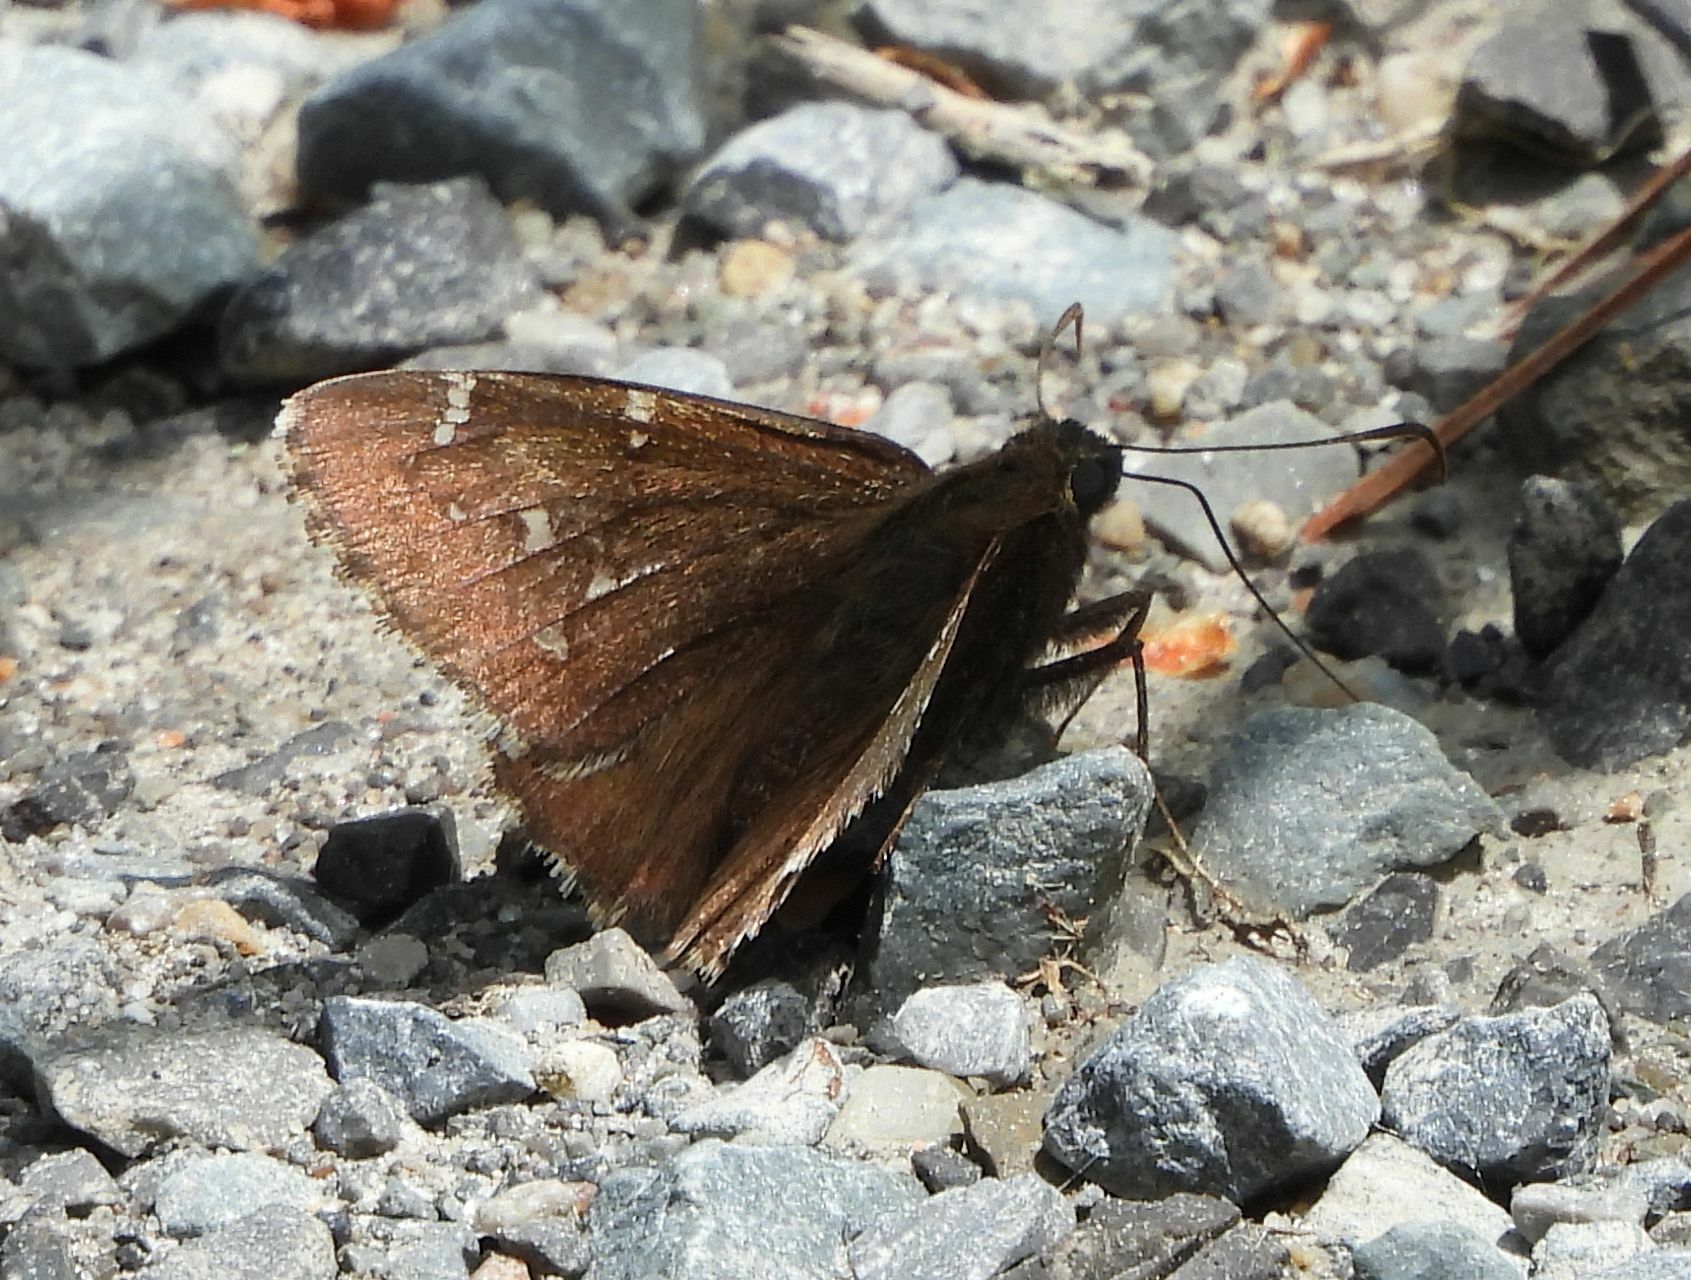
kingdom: Animalia
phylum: Arthropoda
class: Insecta
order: Lepidoptera
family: Hesperiidae
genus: Thorybes
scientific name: Thorybes pylades
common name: Northern cloudywing
